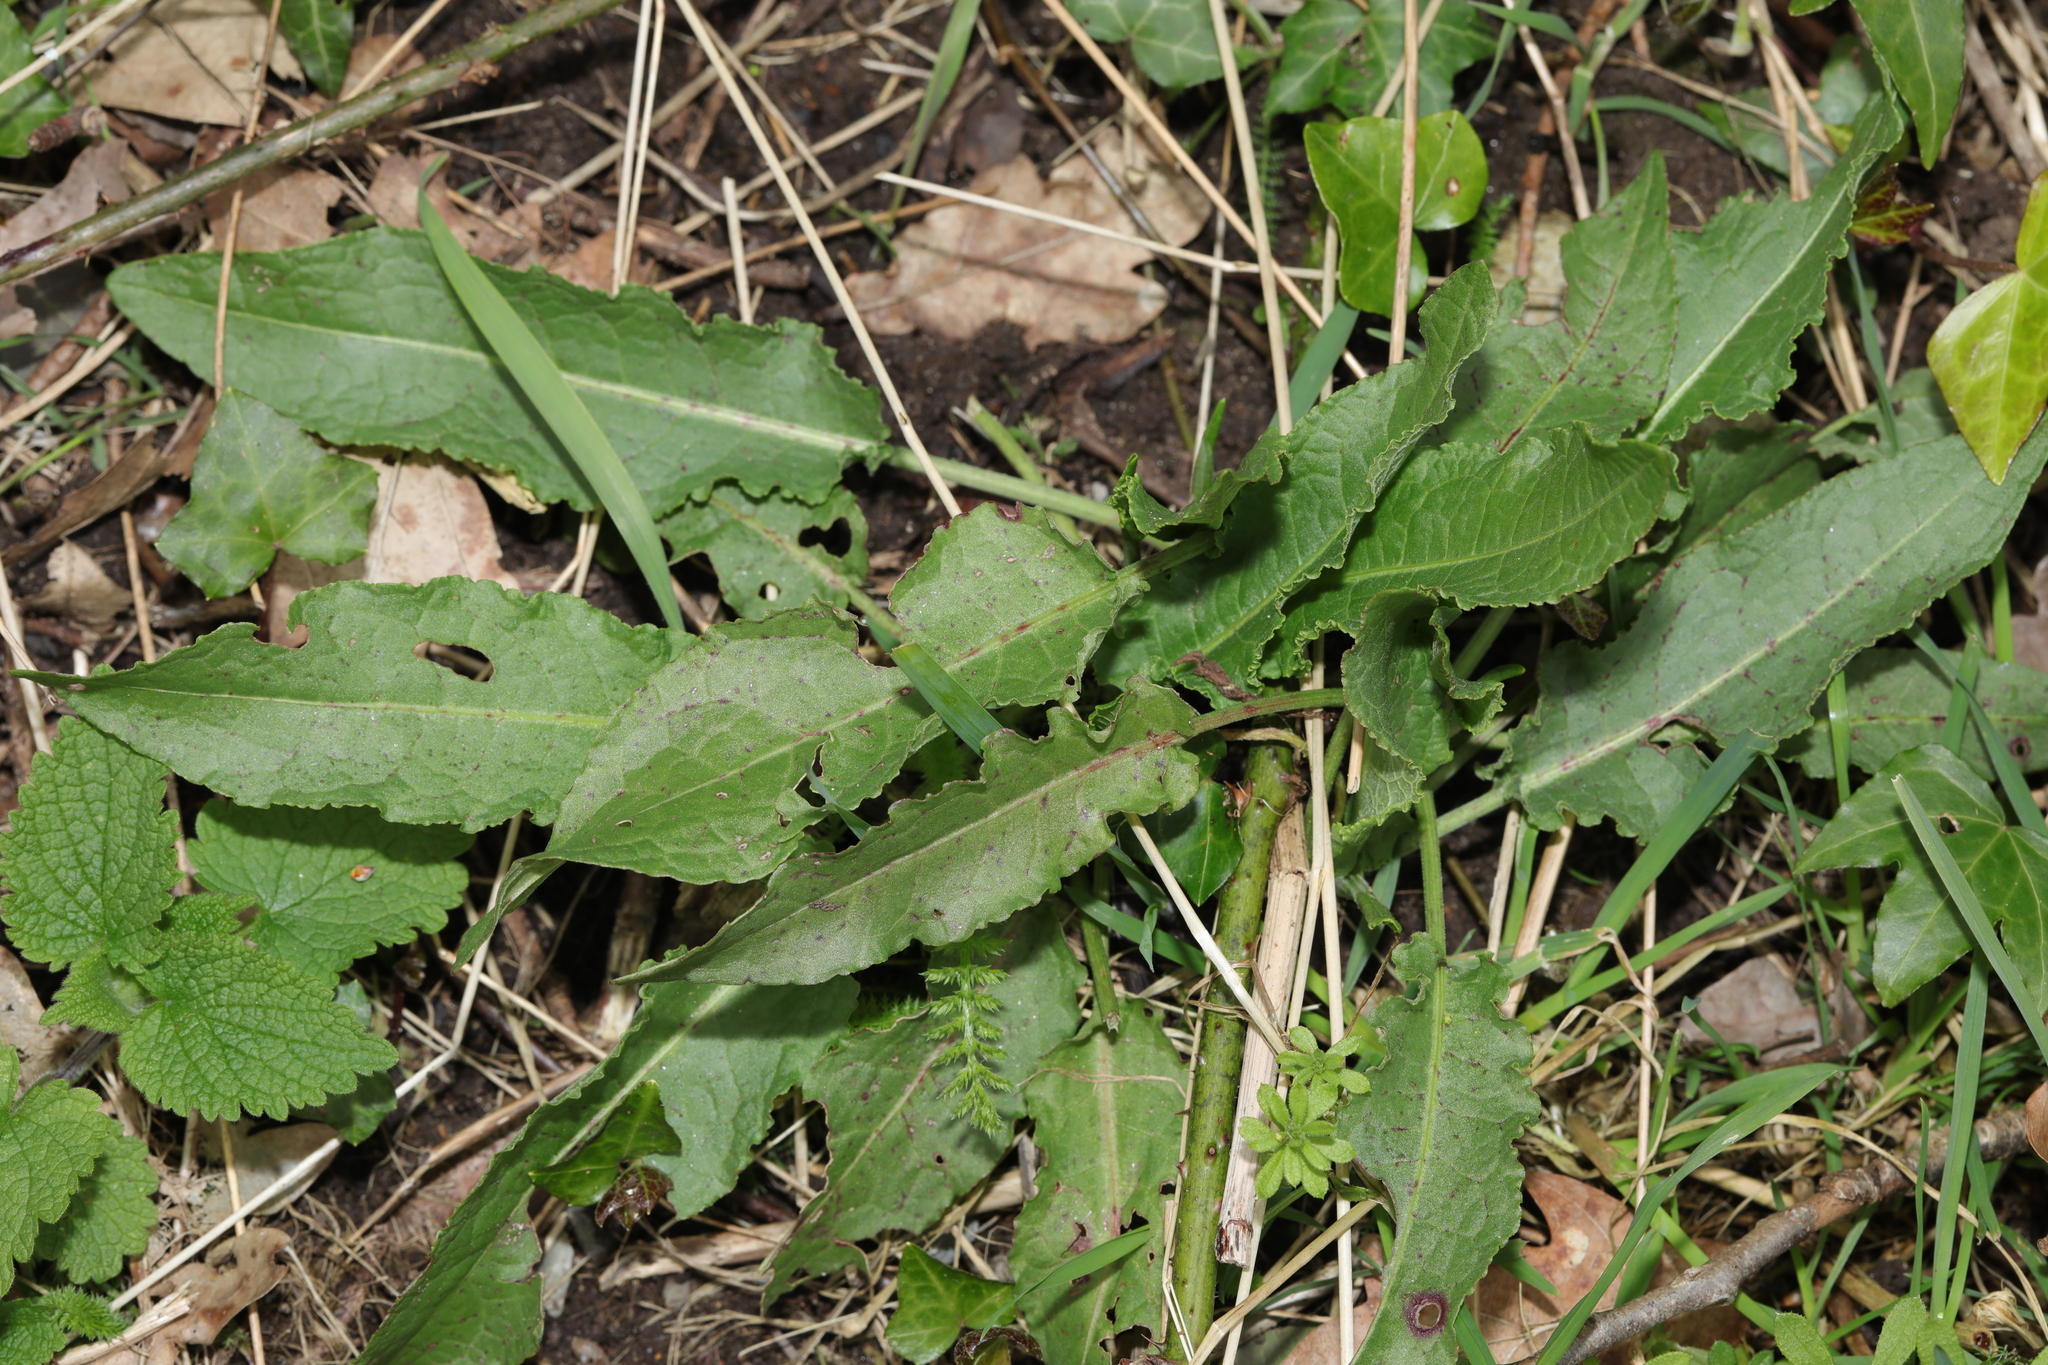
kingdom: Plantae
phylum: Tracheophyta
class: Magnoliopsida
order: Caryophyllales
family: Polygonaceae
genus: Rumex
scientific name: Rumex crispus
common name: Curled dock
